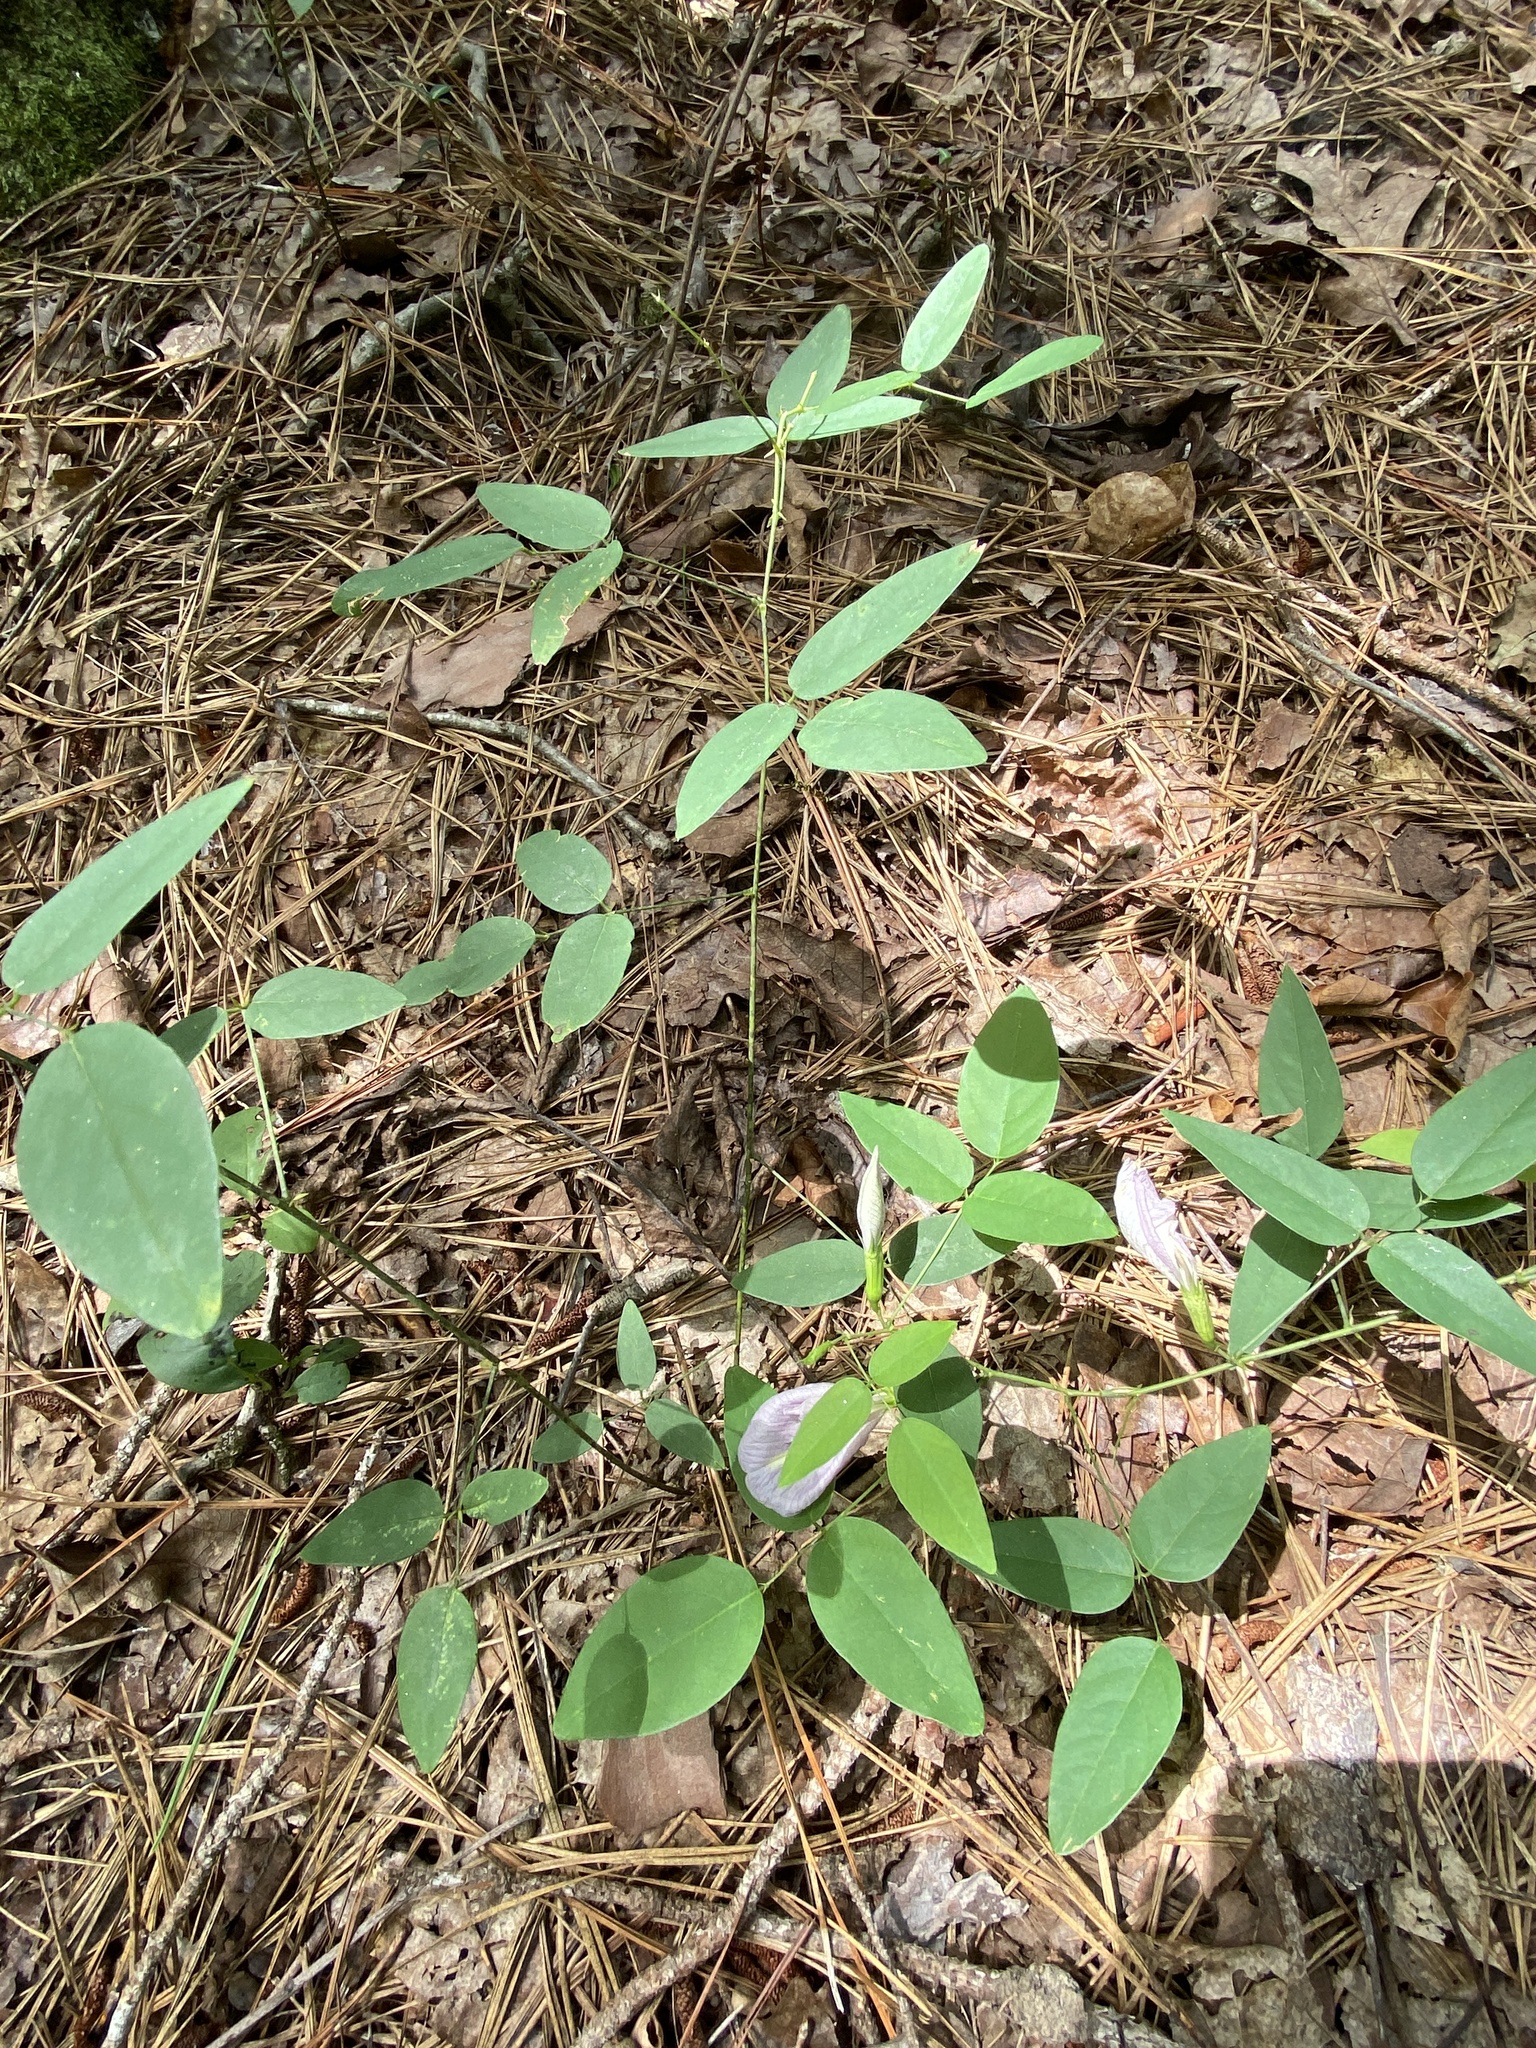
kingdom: Plantae
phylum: Tracheophyta
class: Magnoliopsida
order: Fabales
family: Fabaceae
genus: Clitoria
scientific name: Clitoria mariana
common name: Butterfly-pea
